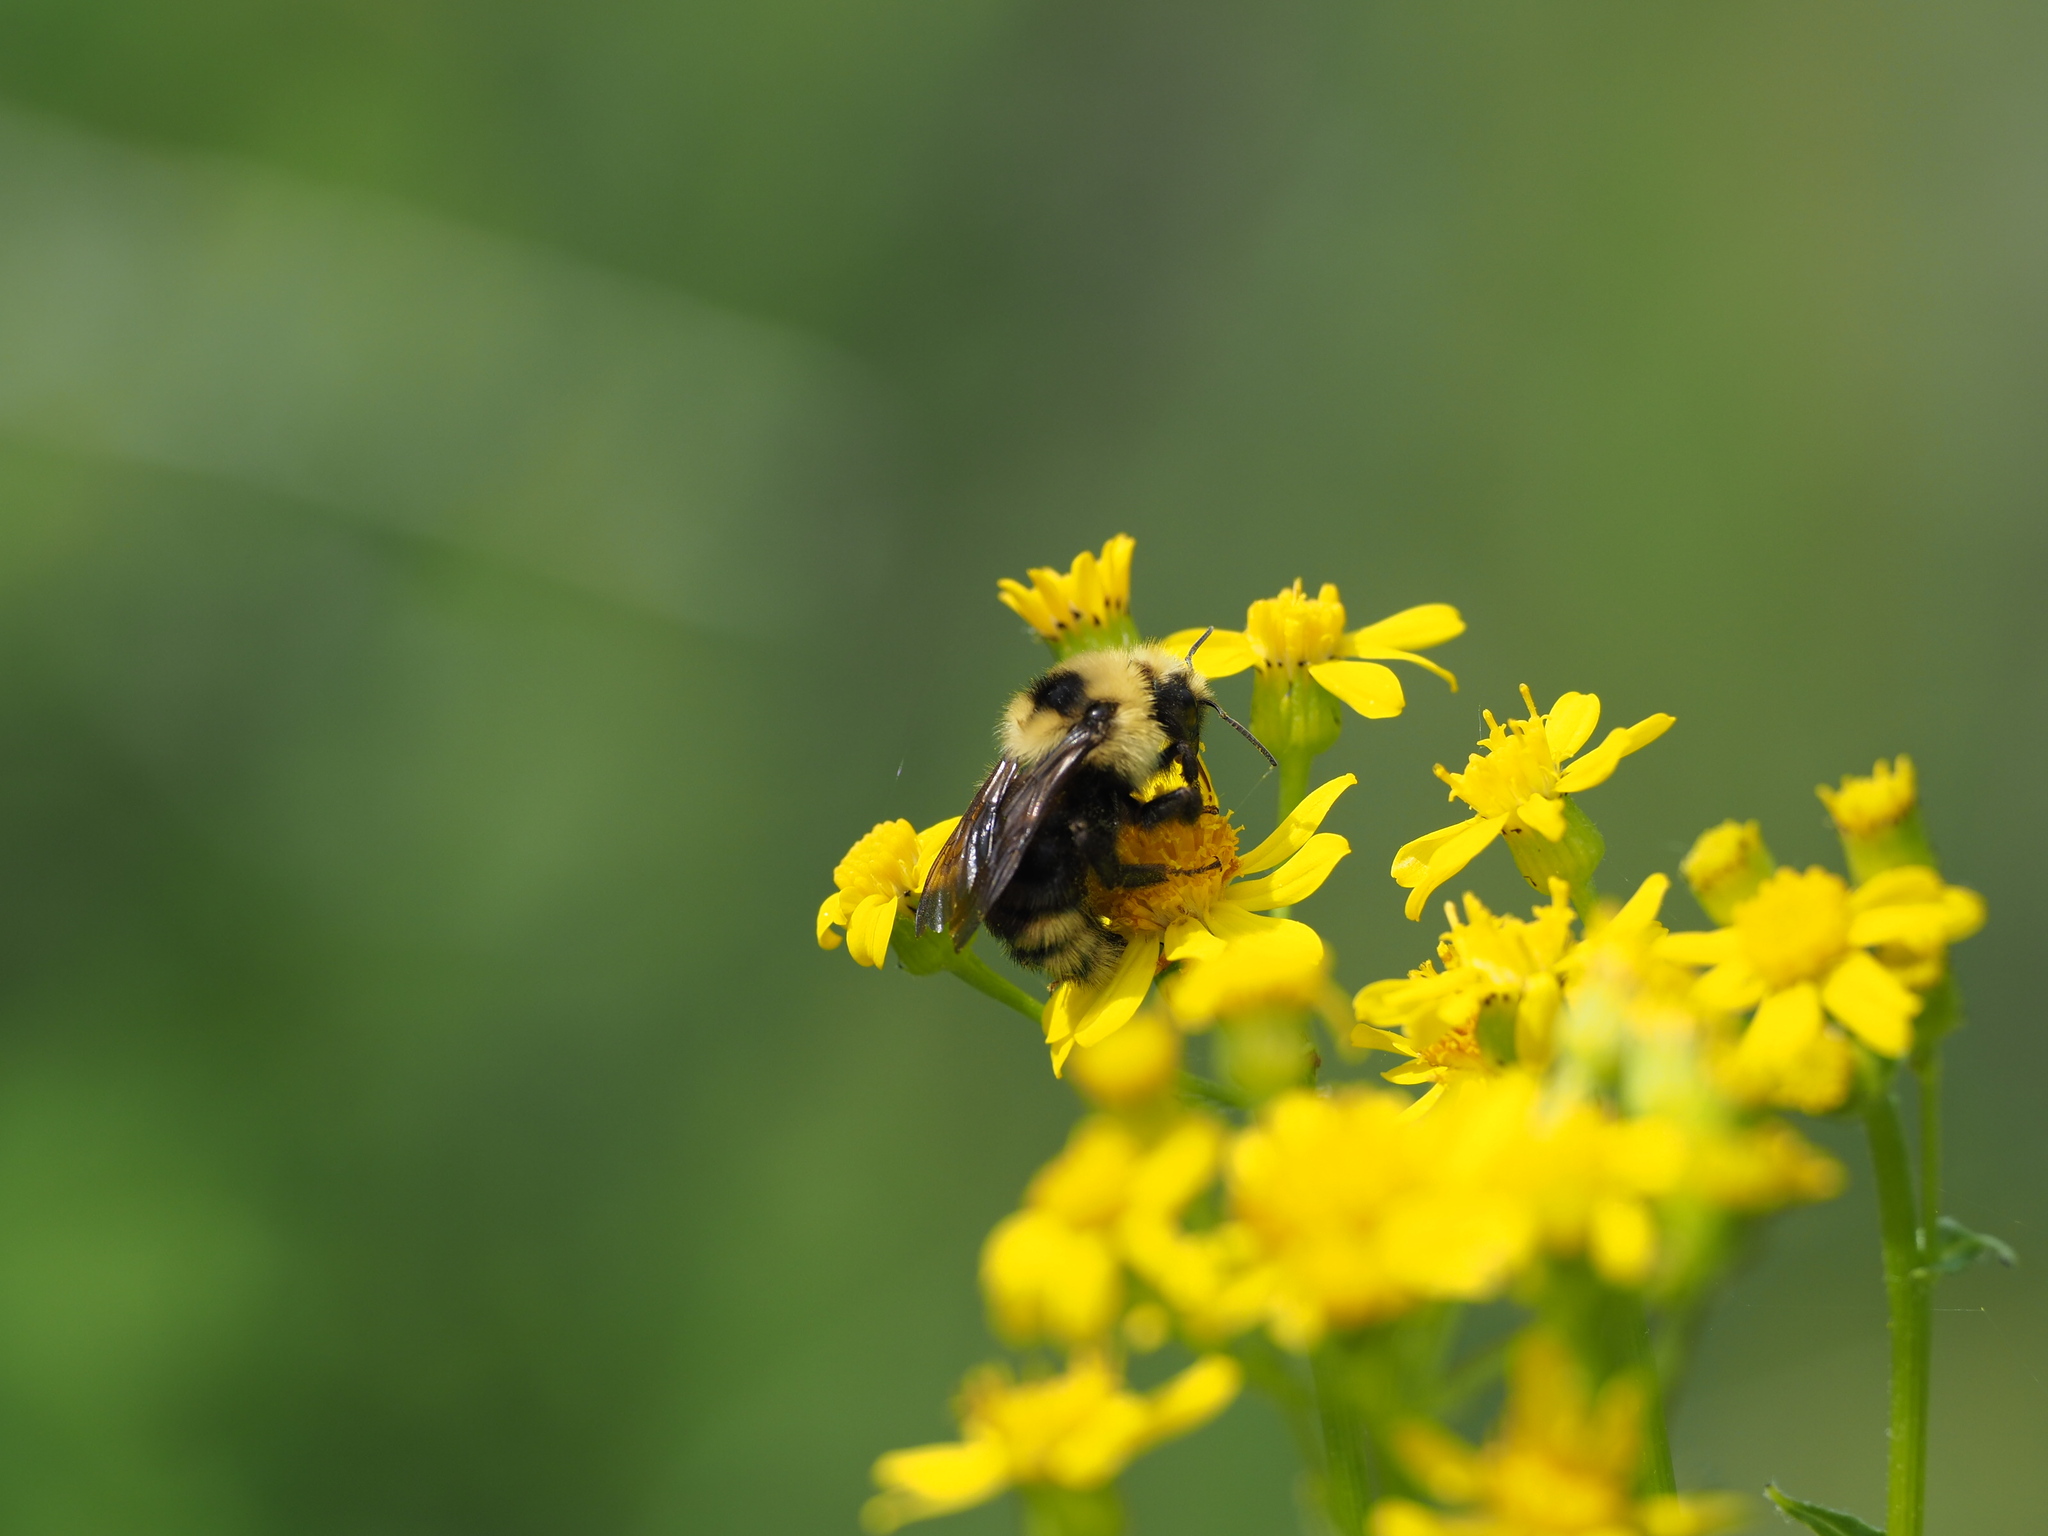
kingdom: Animalia
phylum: Arthropoda
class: Insecta
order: Hymenoptera
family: Apidae
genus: Bombus
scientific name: Bombus insularis
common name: Indiscriminate cuckoo bumble bee
